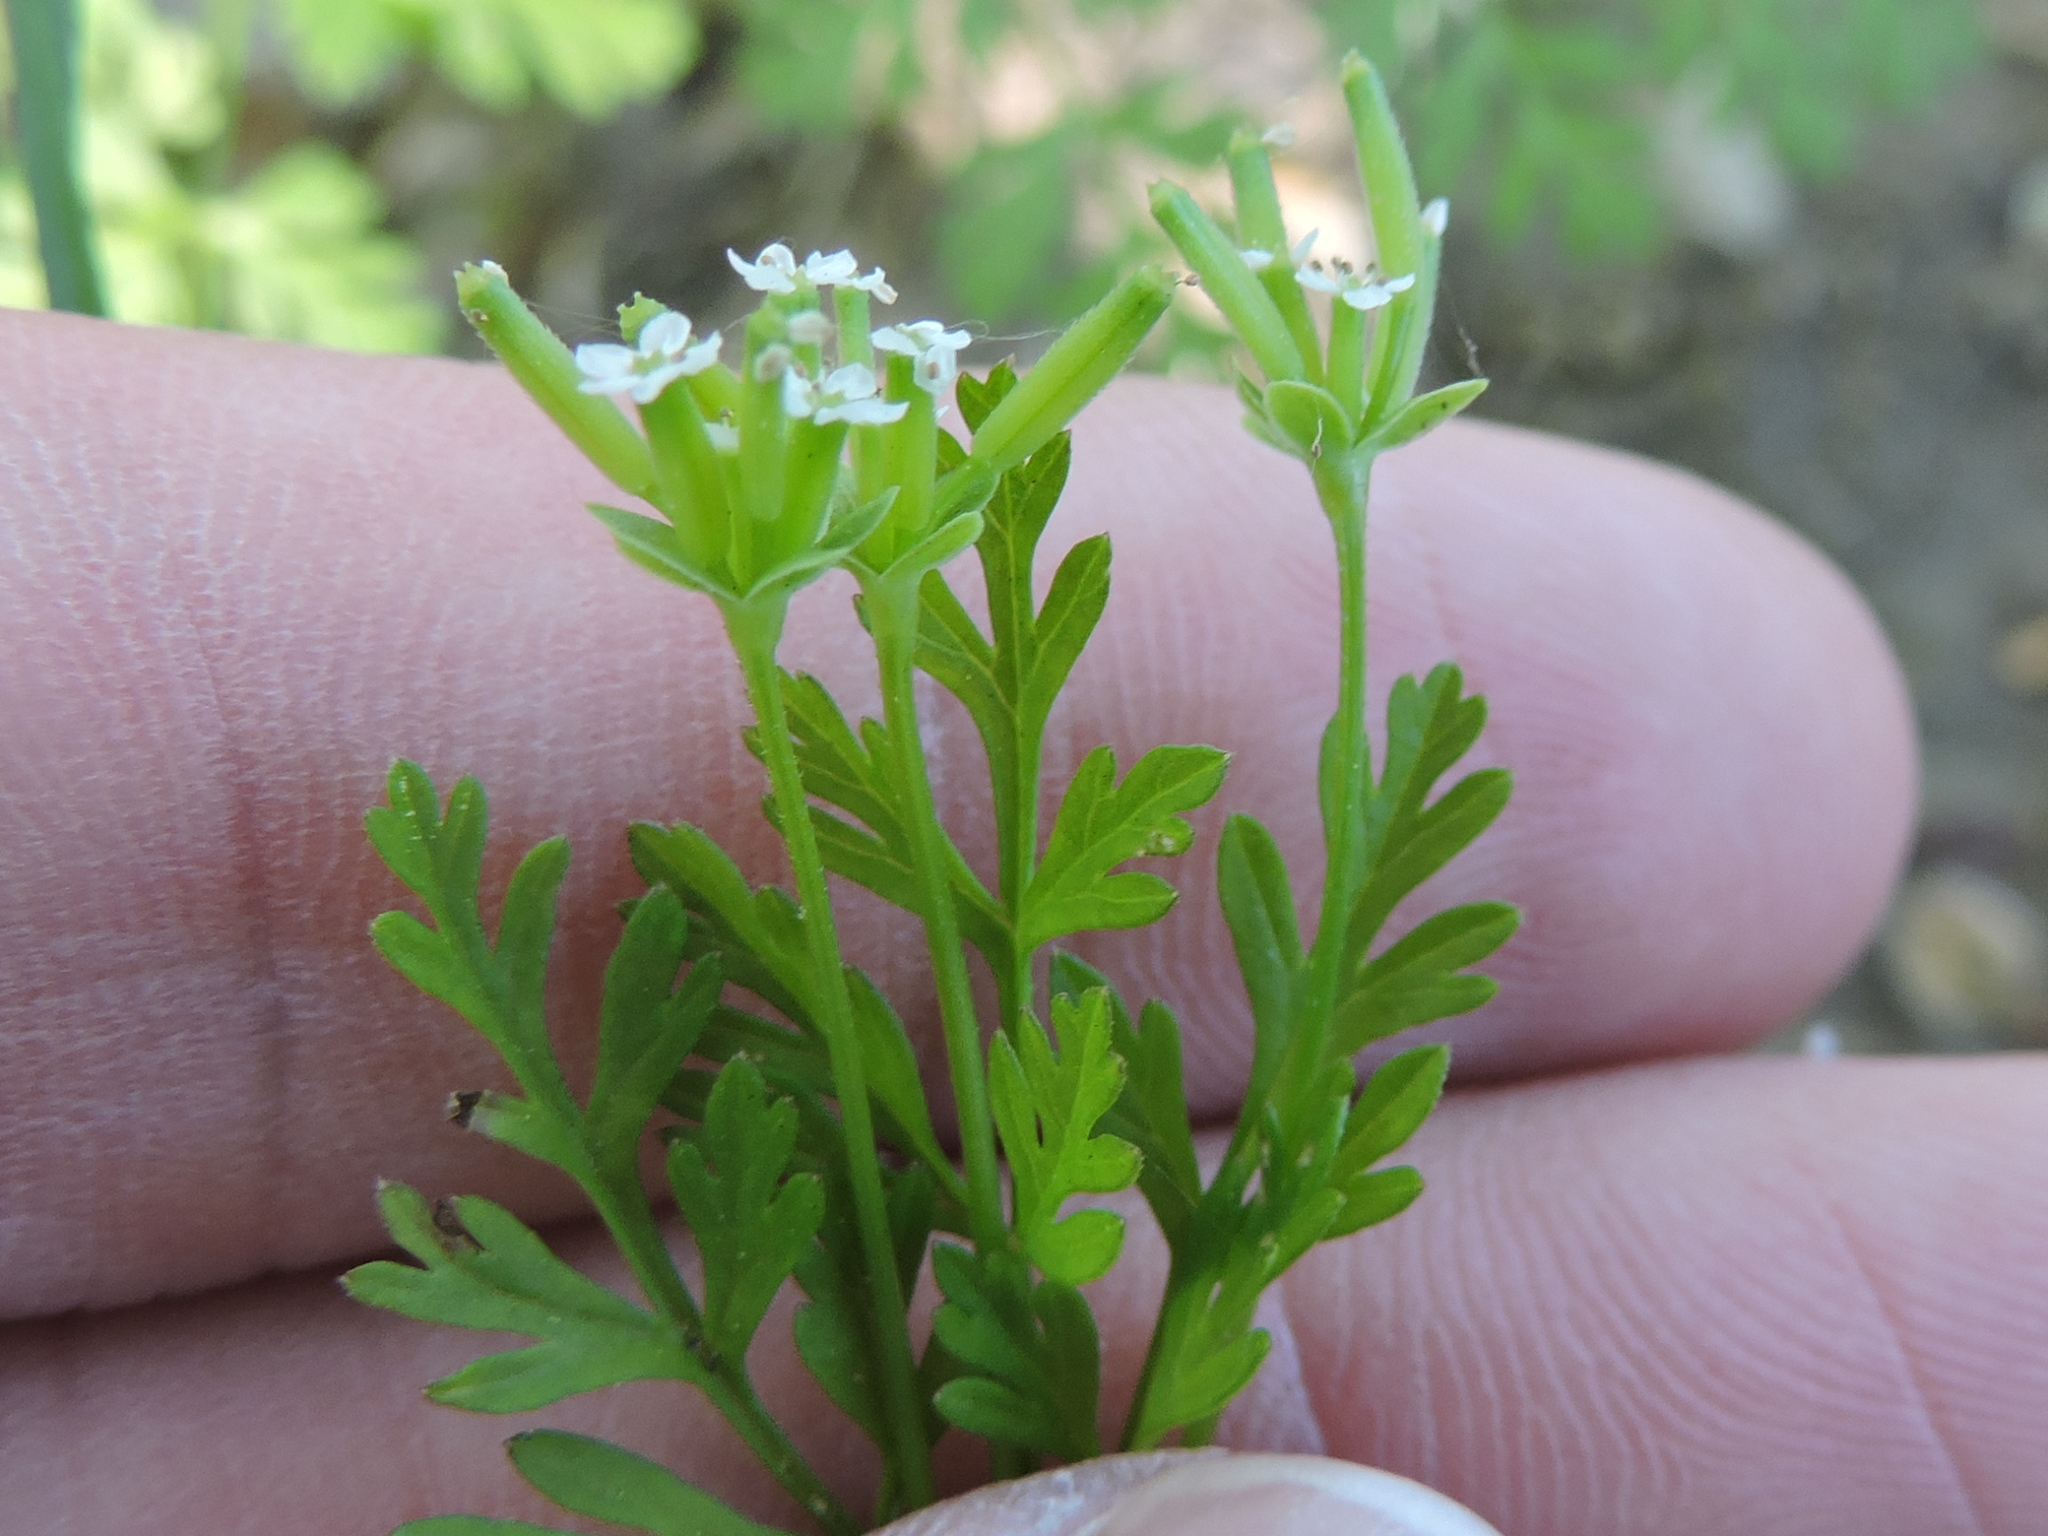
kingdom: Plantae
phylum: Tracheophyta
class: Magnoliopsida
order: Apiales
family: Apiaceae
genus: Chaerophyllum
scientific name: Chaerophyllum tainturieri
